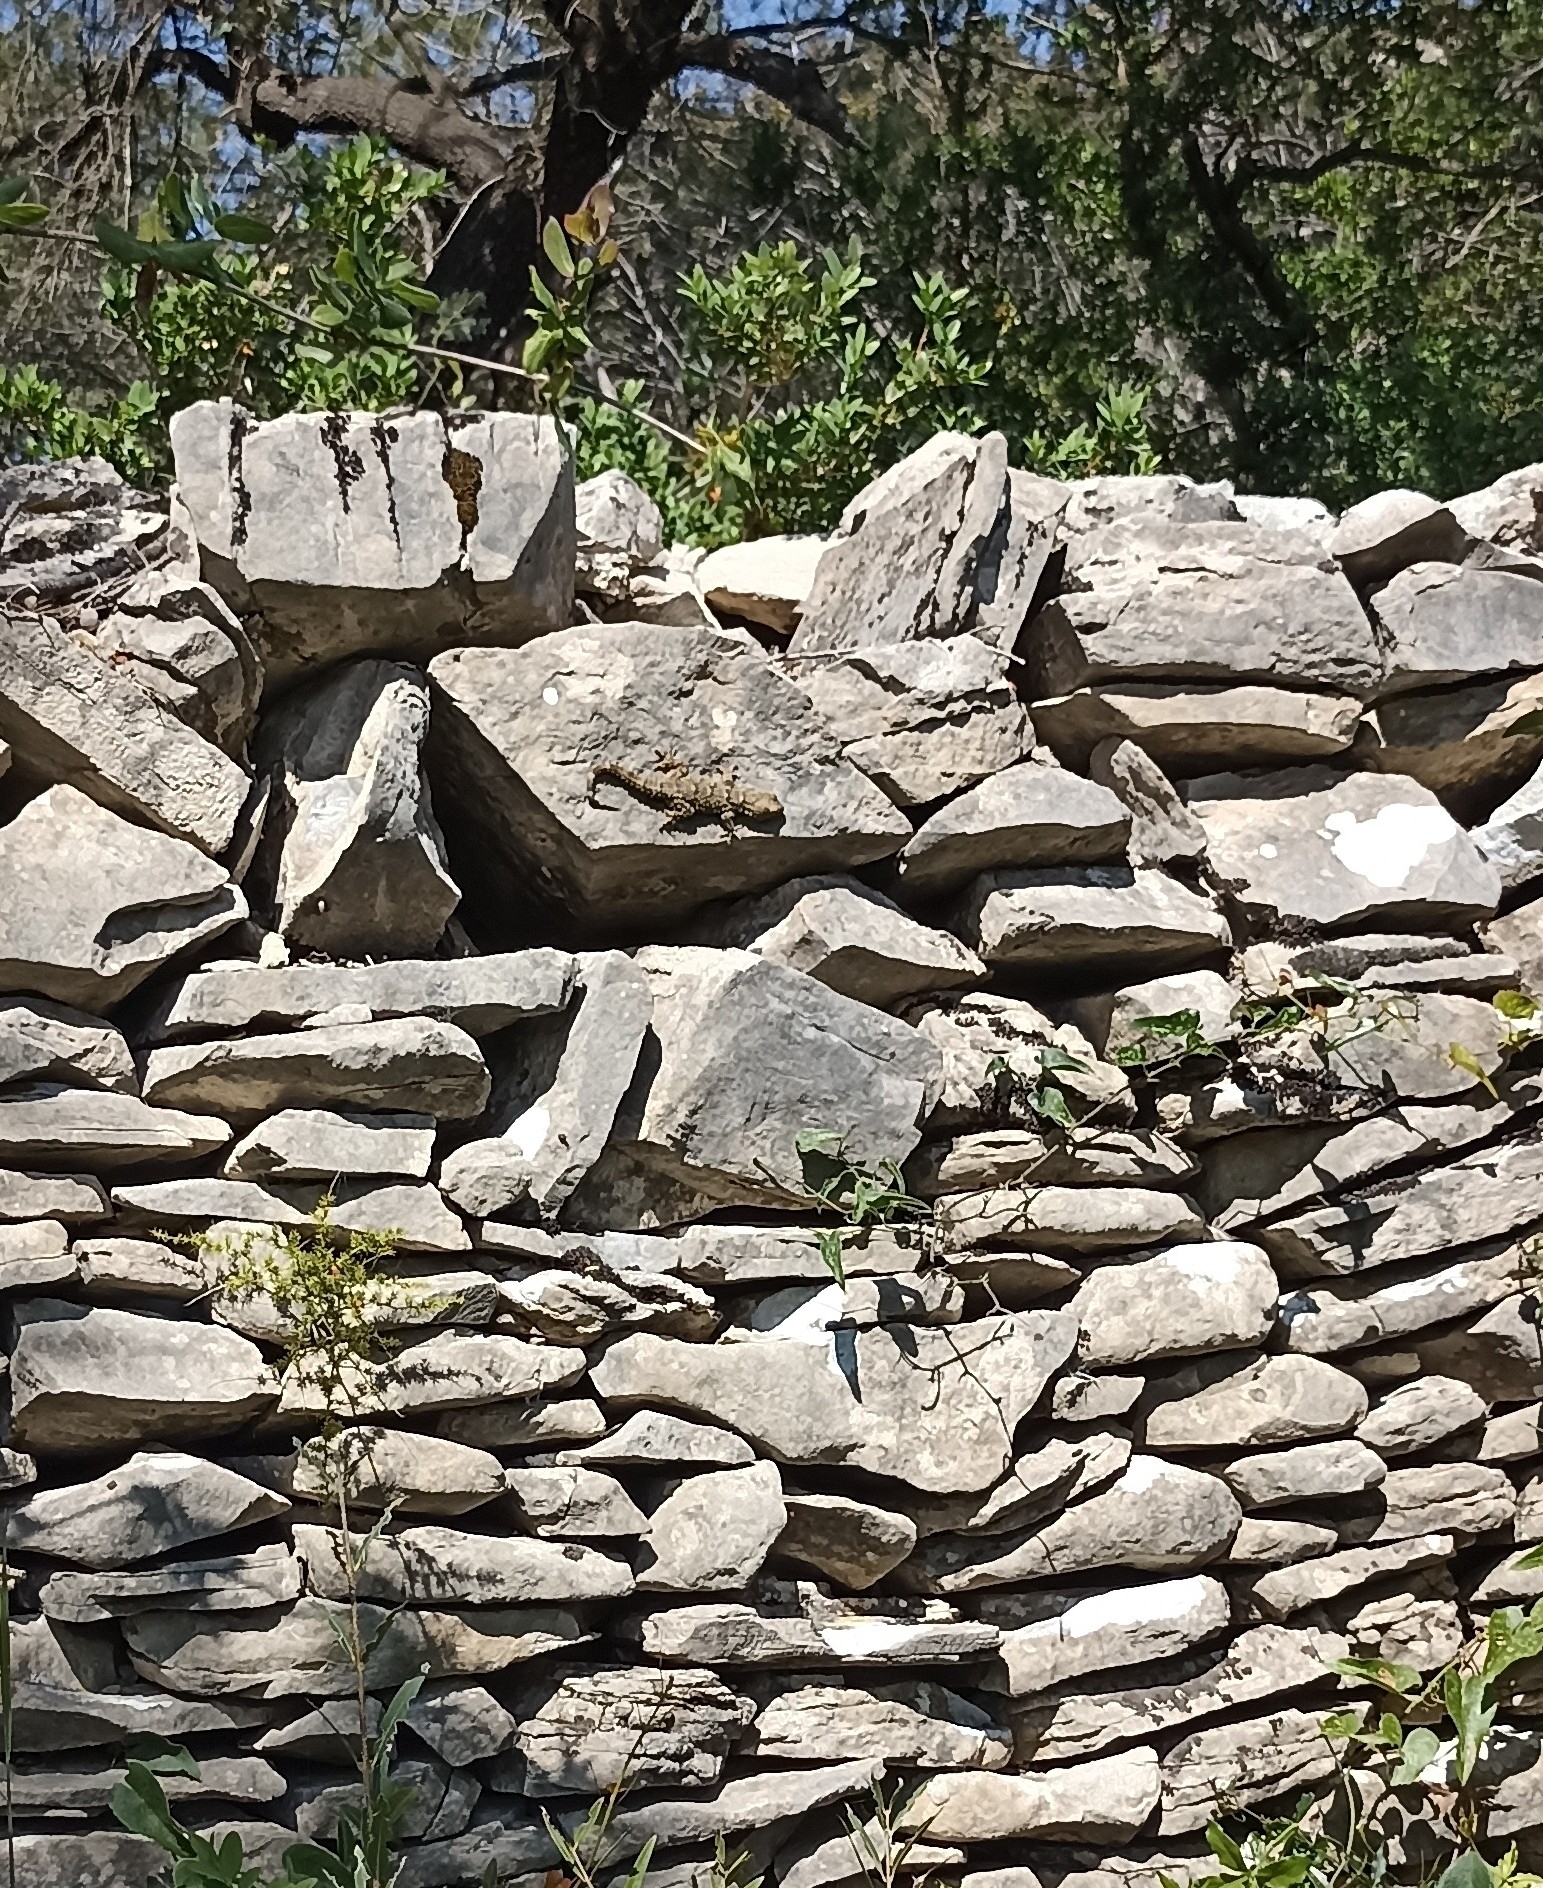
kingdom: Animalia
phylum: Chordata
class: Squamata
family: Phyllodactylidae
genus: Tarentola
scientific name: Tarentola mauritanica
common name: Moorish gecko
